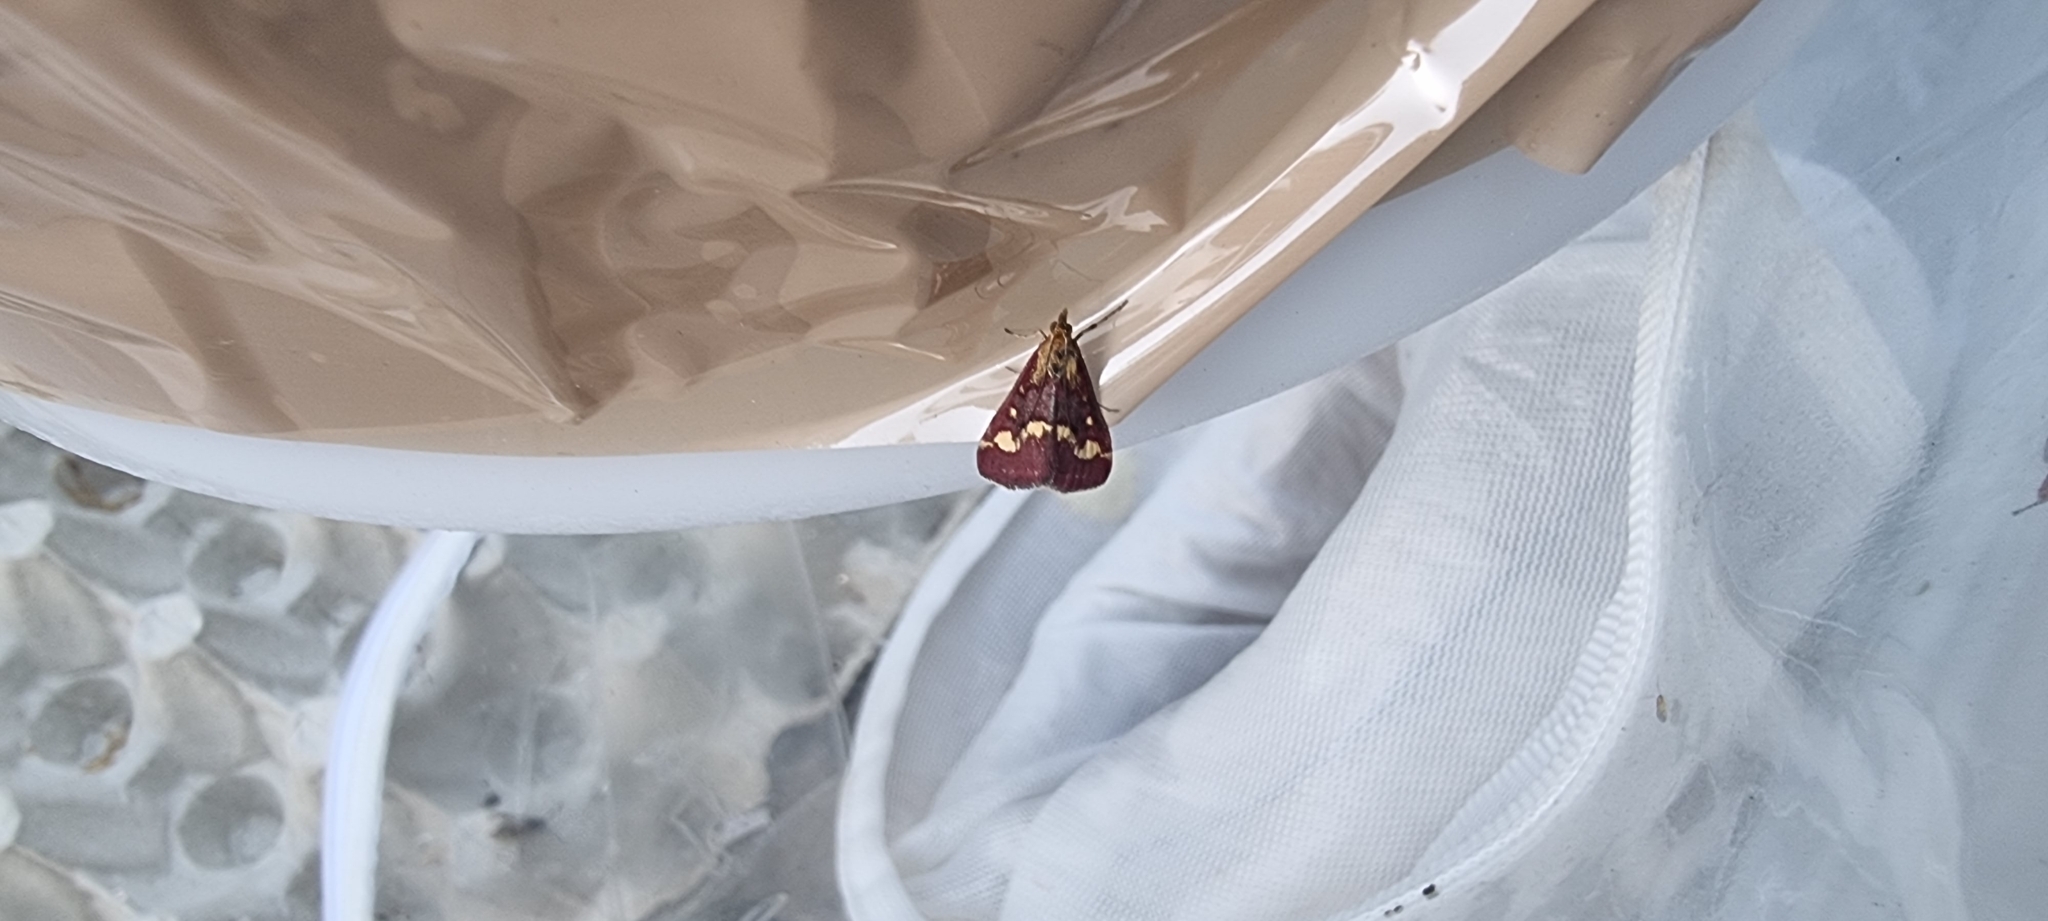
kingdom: Animalia
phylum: Arthropoda
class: Insecta
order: Lepidoptera
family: Crambidae
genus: Pyrausta
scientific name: Pyrausta purpuralis
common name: Common purple & gold
